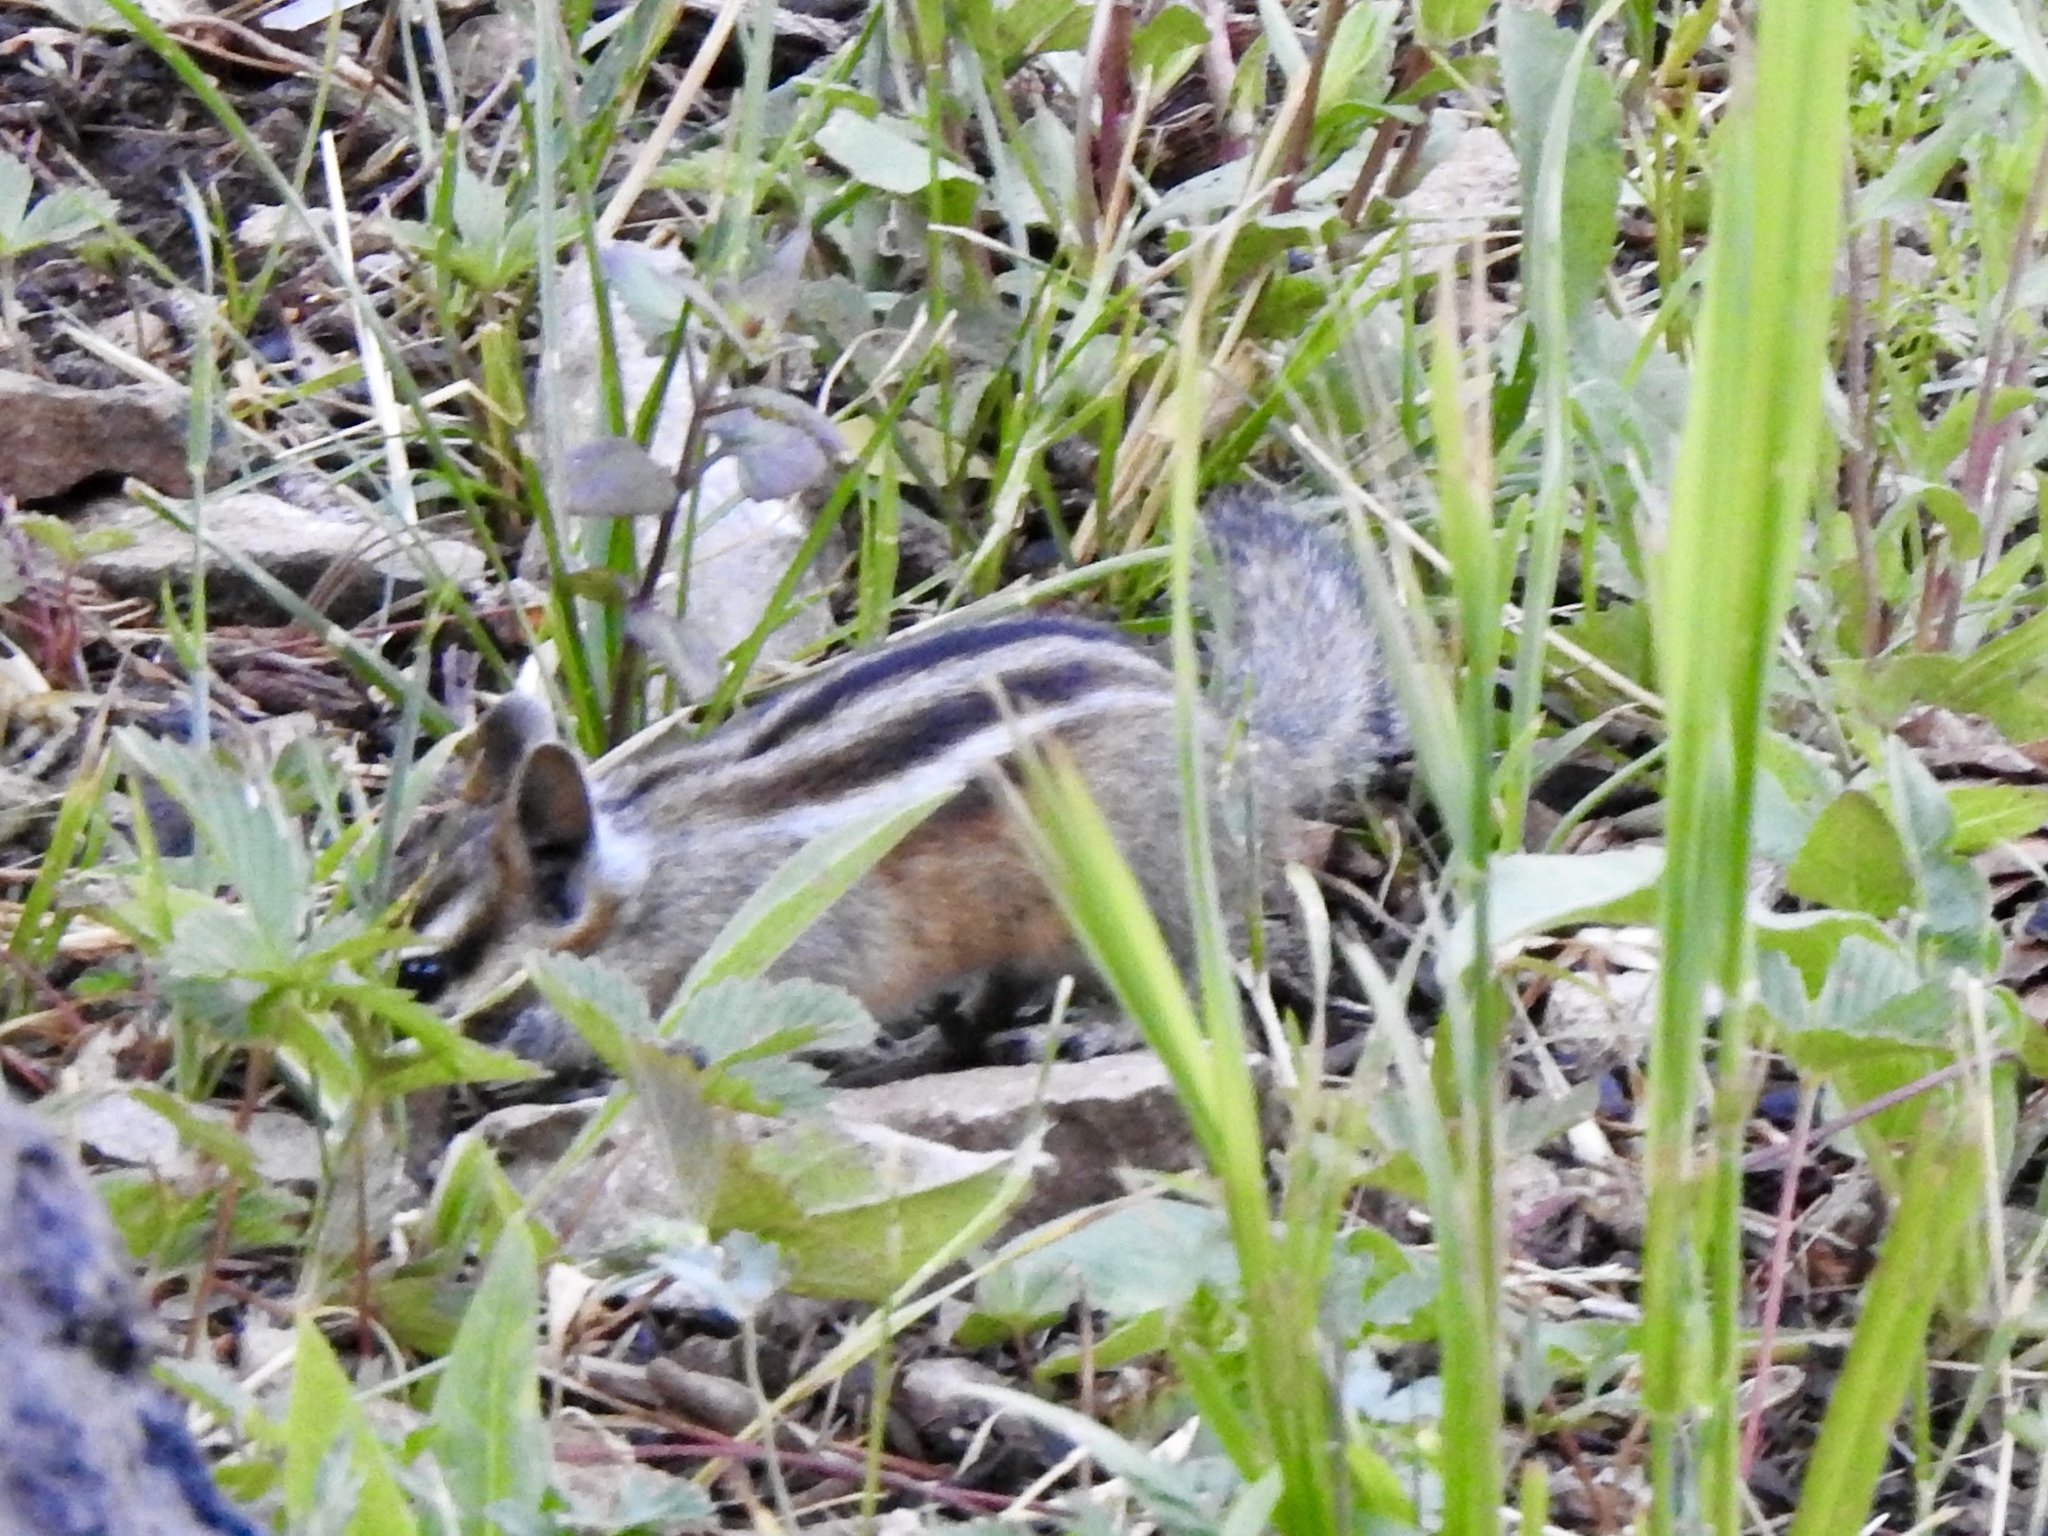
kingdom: Animalia
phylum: Chordata
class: Mammalia
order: Rodentia
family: Sciuridae
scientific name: Sciuridae
